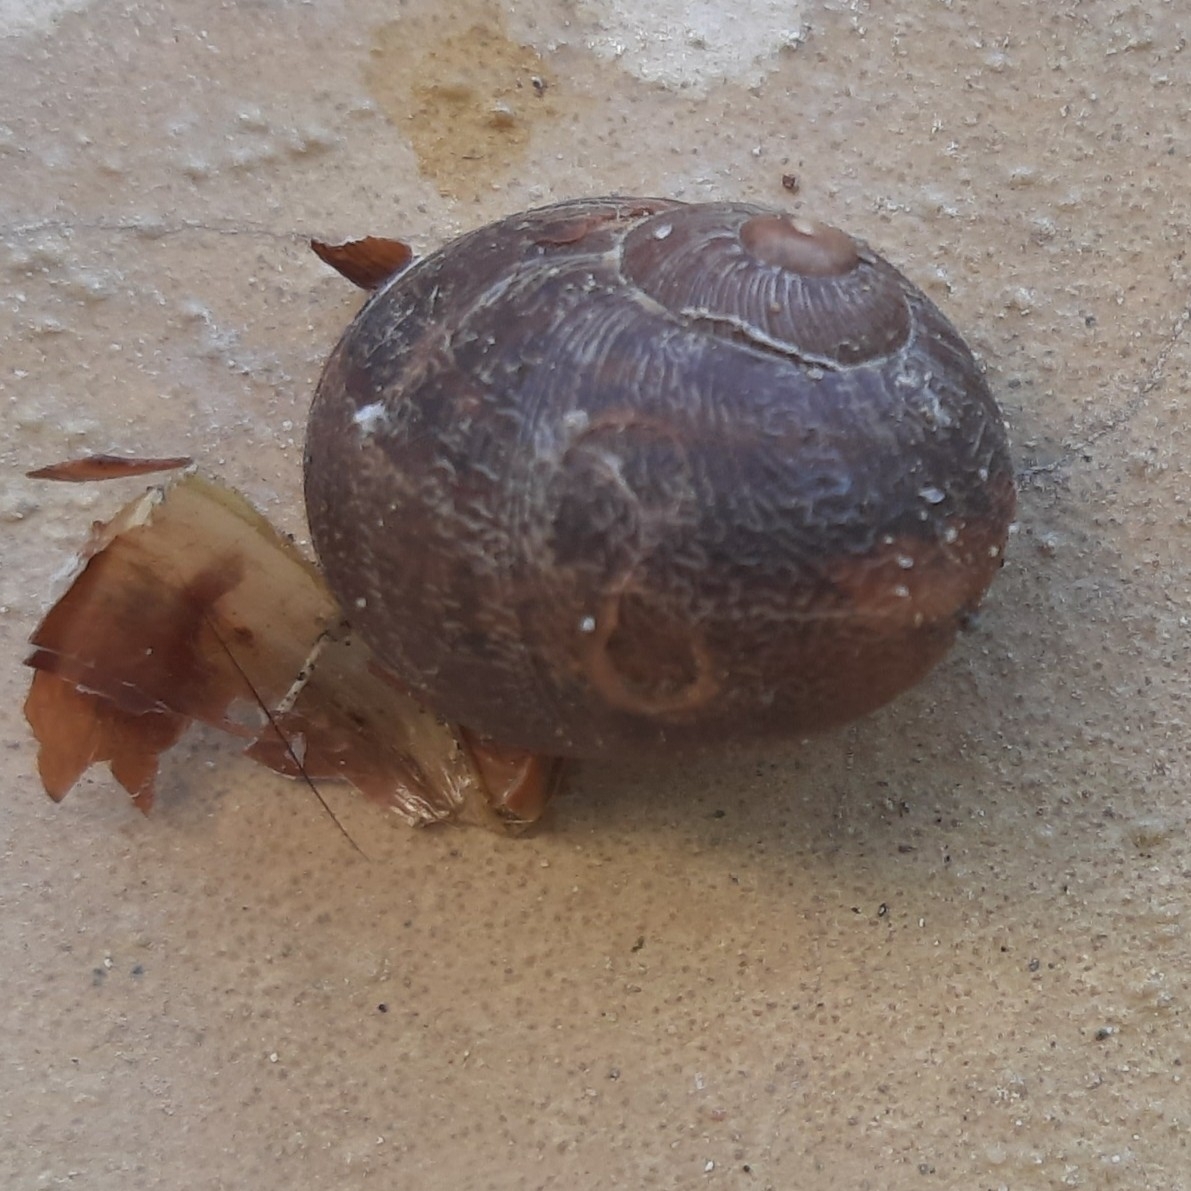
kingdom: Animalia
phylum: Mollusca
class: Gastropoda
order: Stylommatophora
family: Helicidae
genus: Cornu
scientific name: Cornu aspersum
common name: Brown garden snail
